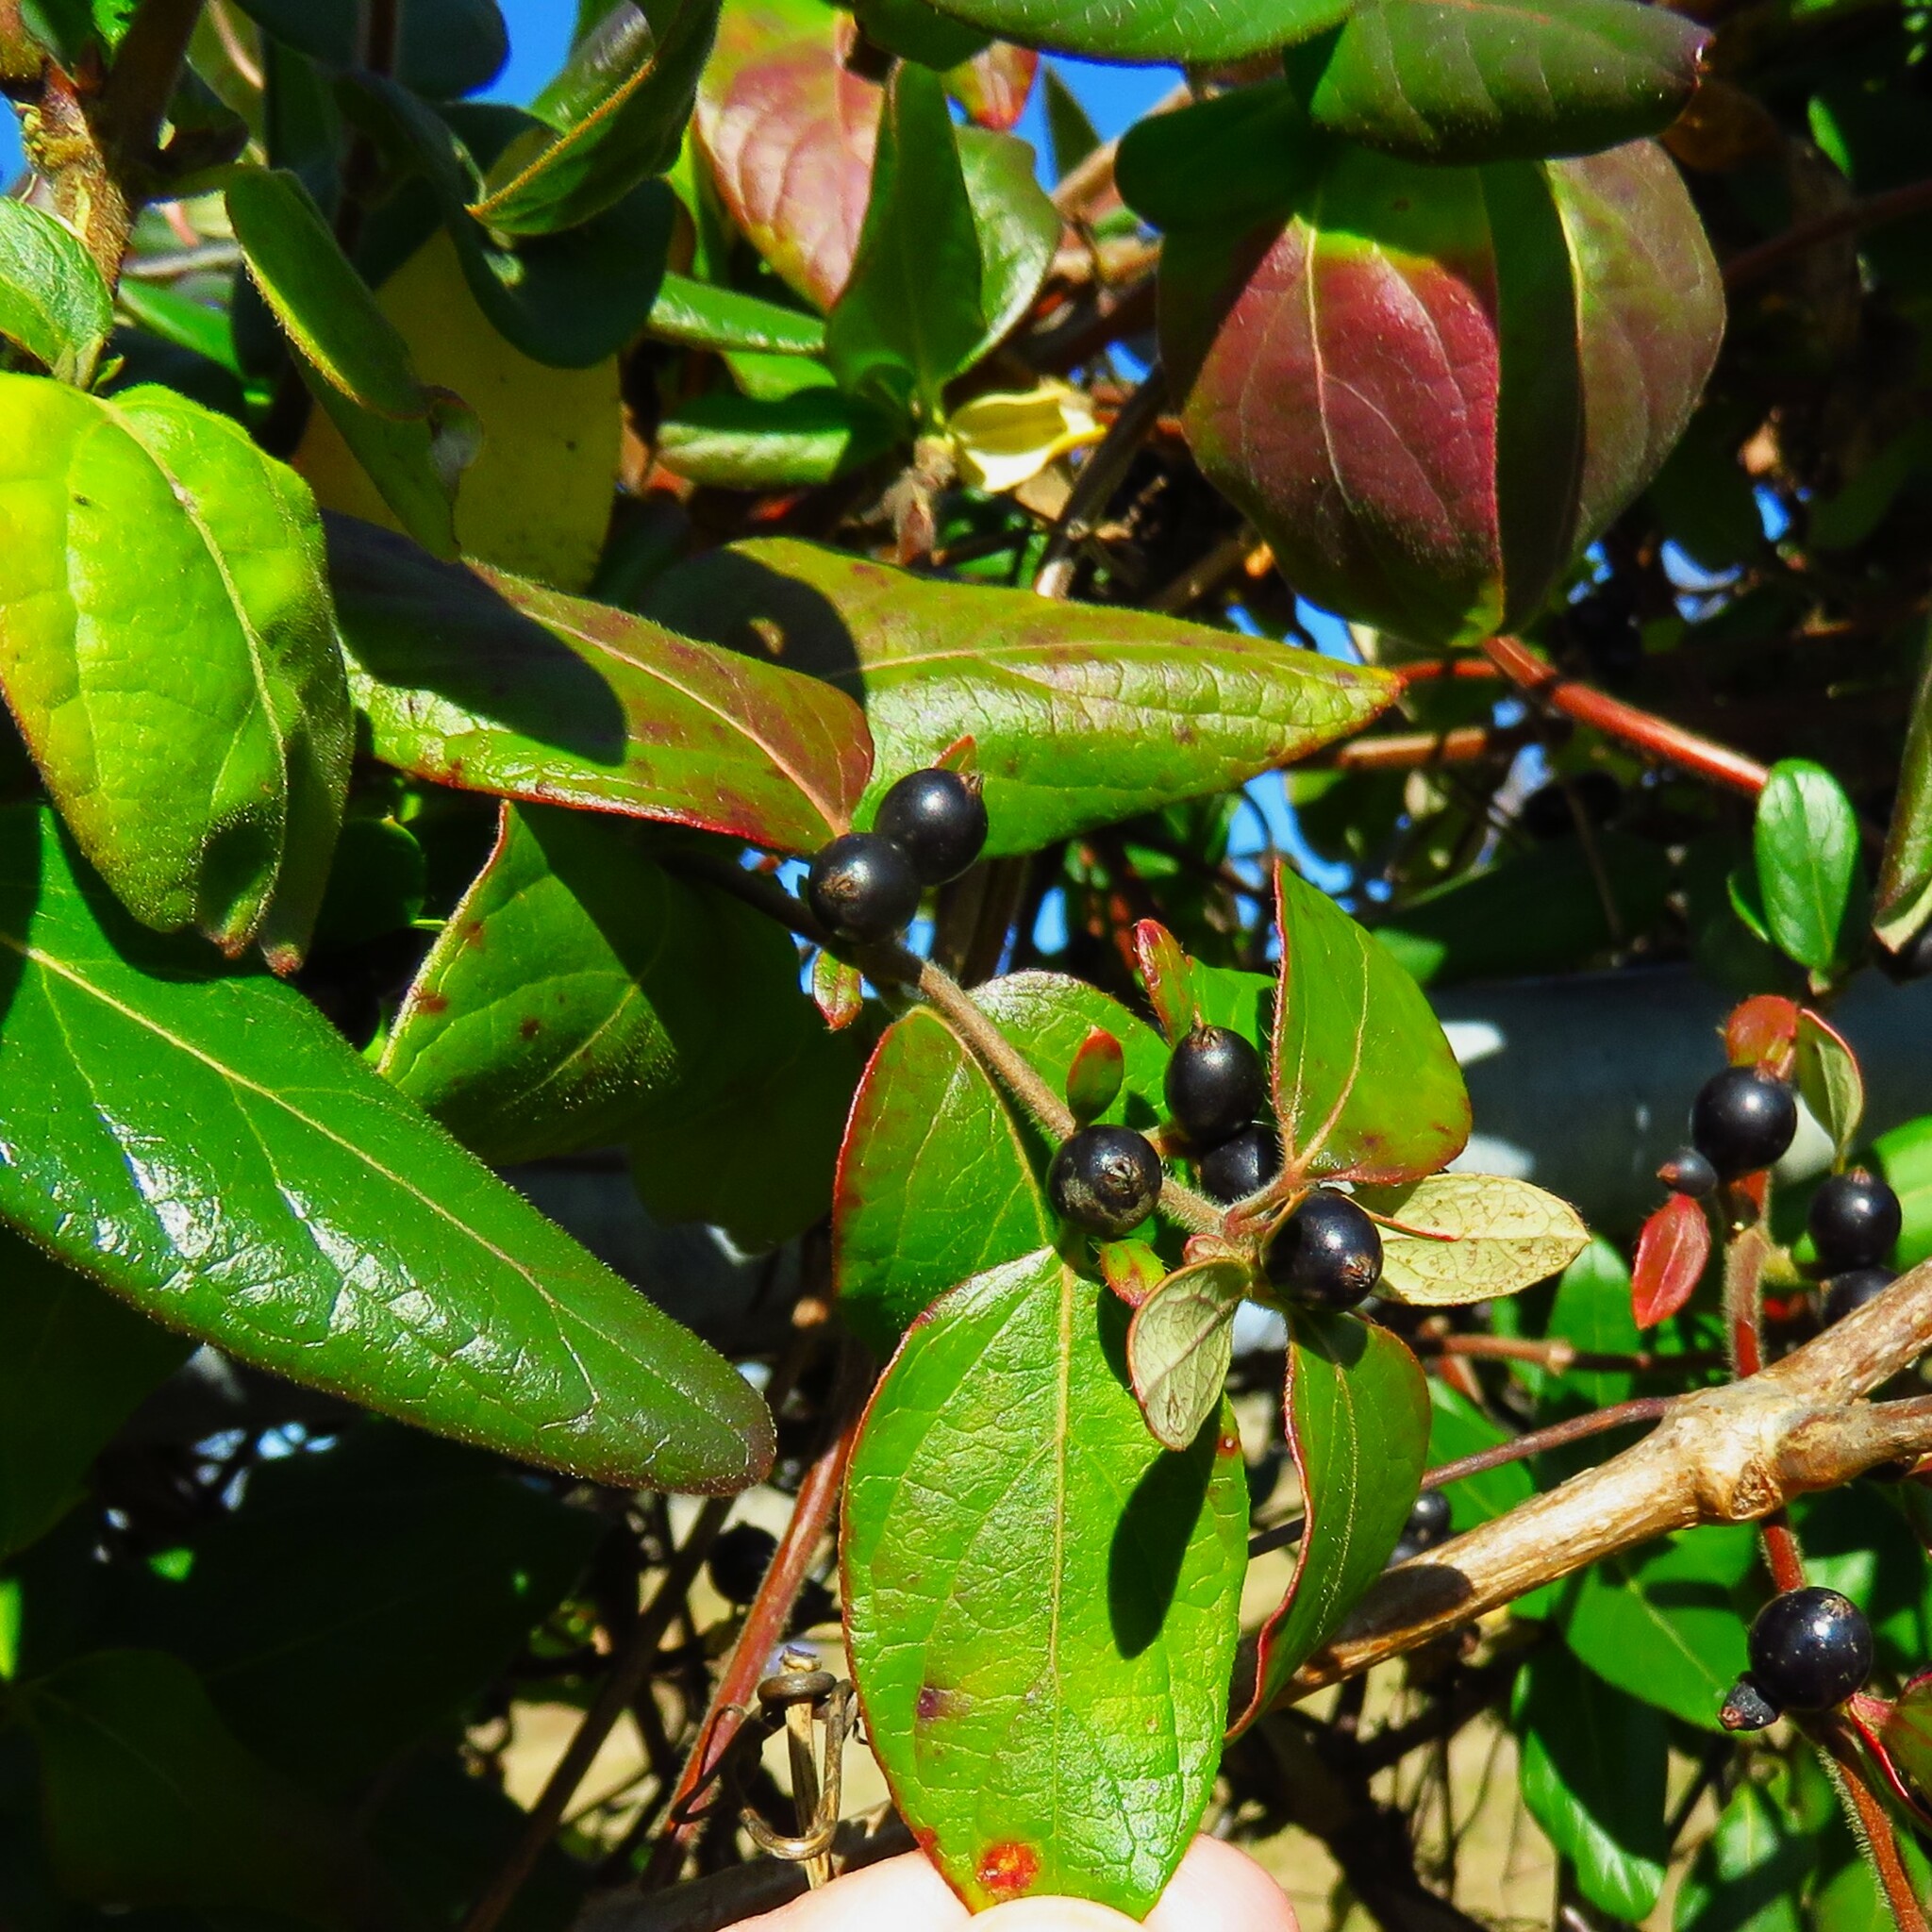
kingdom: Plantae
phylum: Tracheophyta
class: Magnoliopsida
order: Dipsacales
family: Caprifoliaceae
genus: Lonicera
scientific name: Lonicera japonica
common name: Japanese honeysuckle
